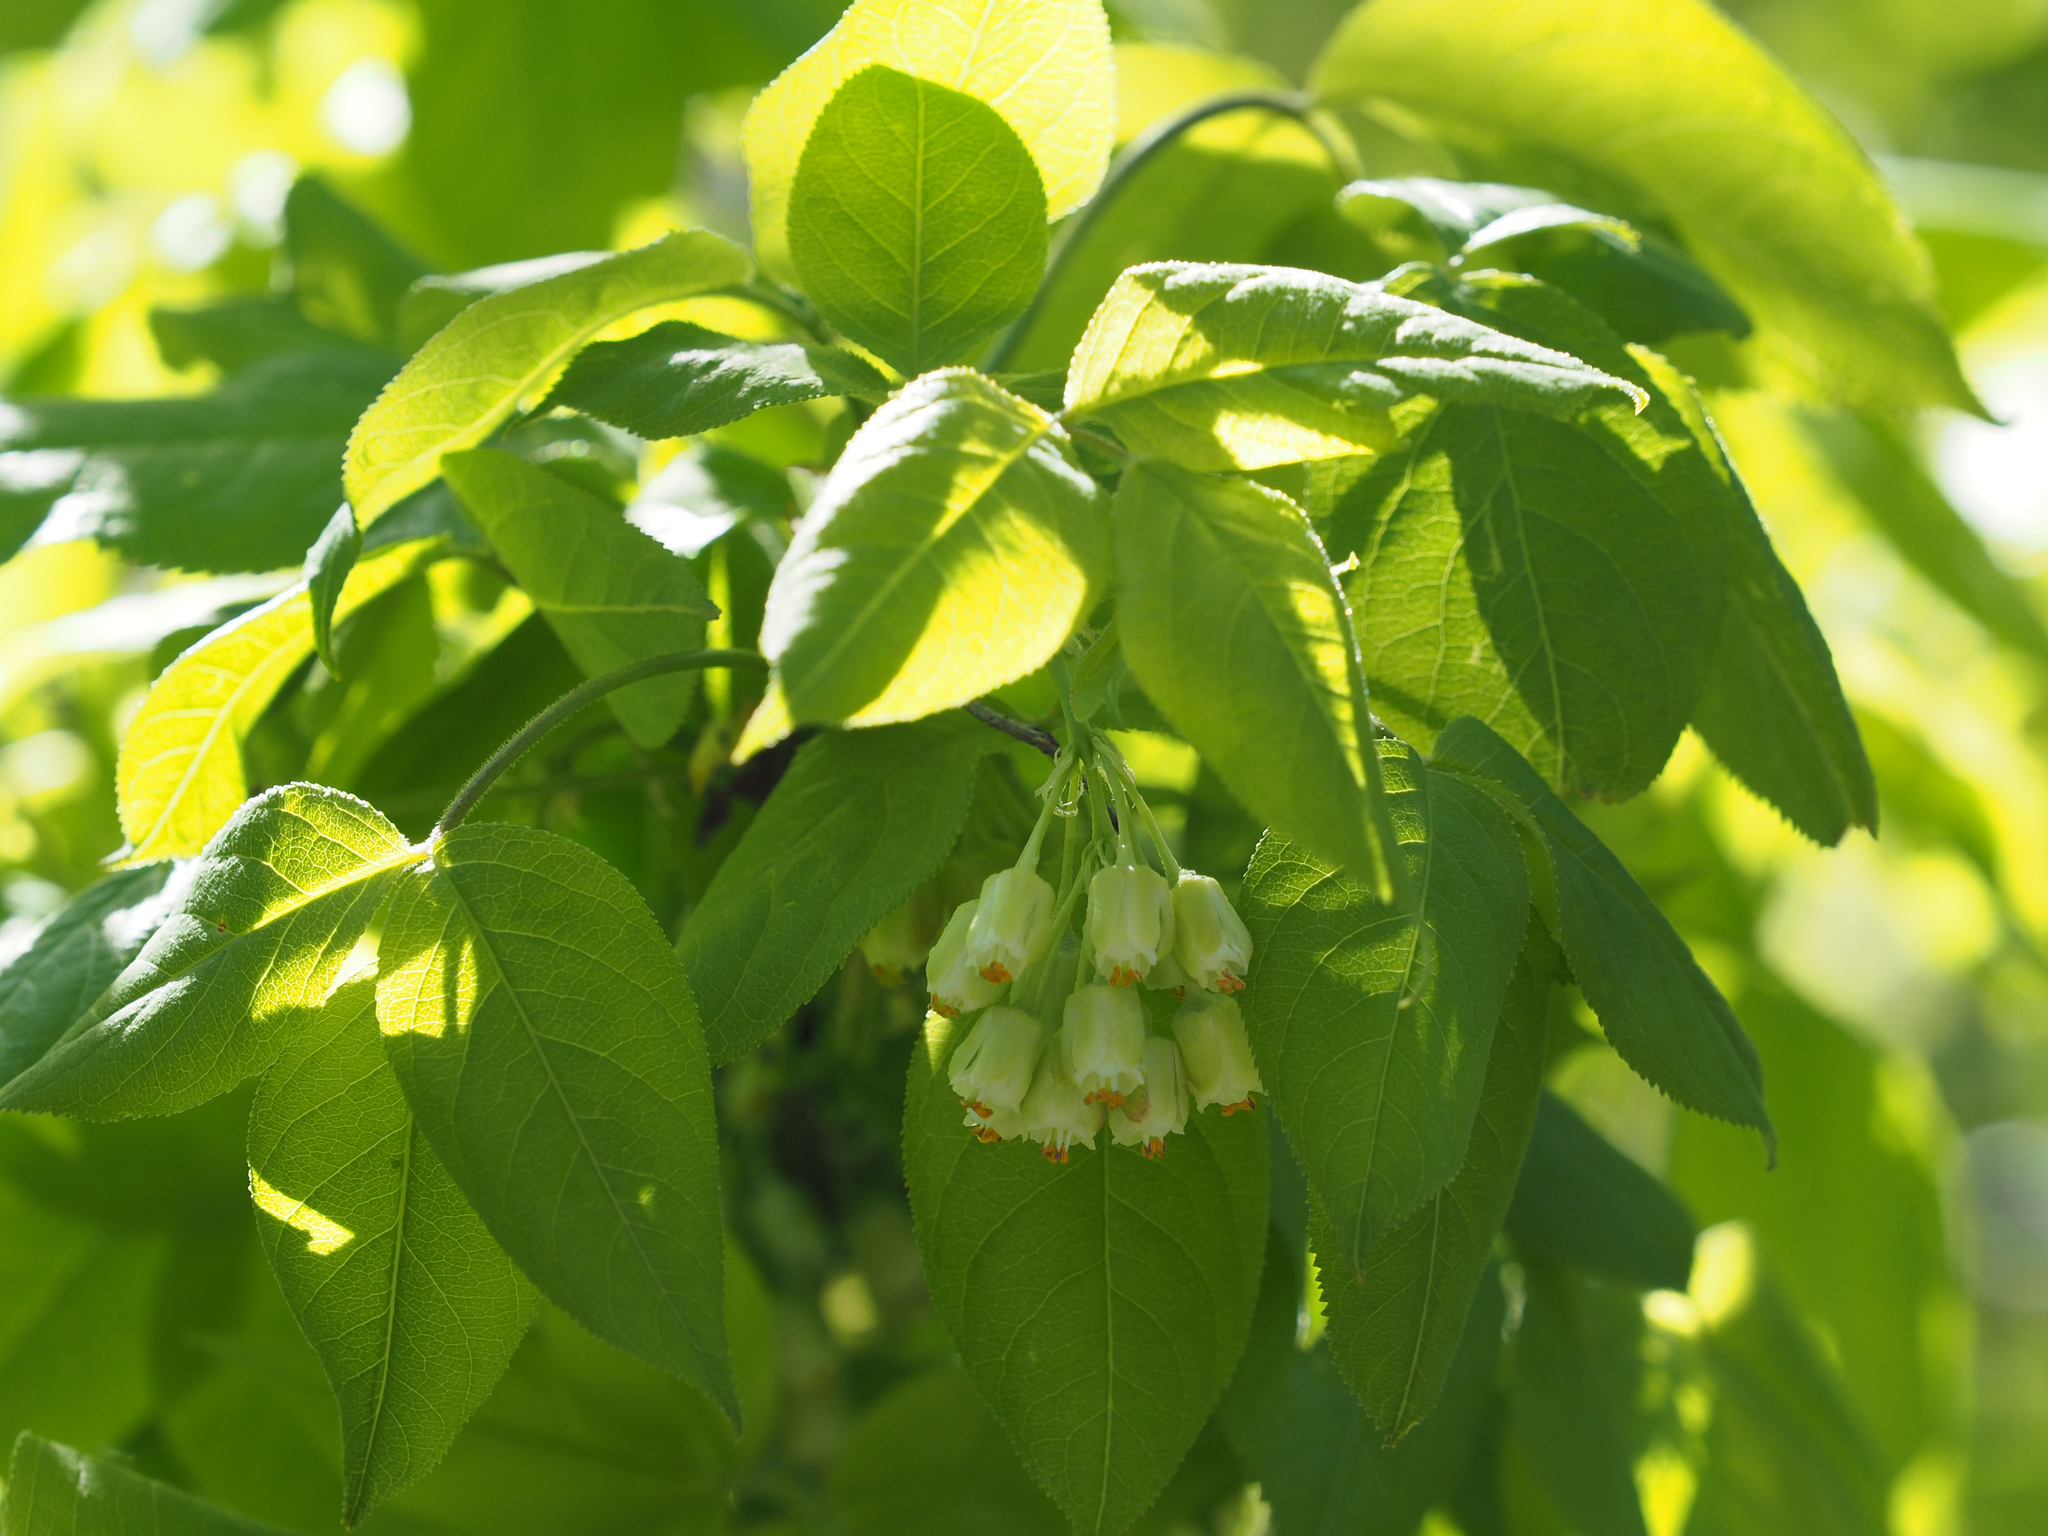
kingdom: Plantae
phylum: Tracheophyta
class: Magnoliopsida
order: Crossosomatales
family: Staphyleaceae
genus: Staphylea
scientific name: Staphylea trifolia
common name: American bladdernut
